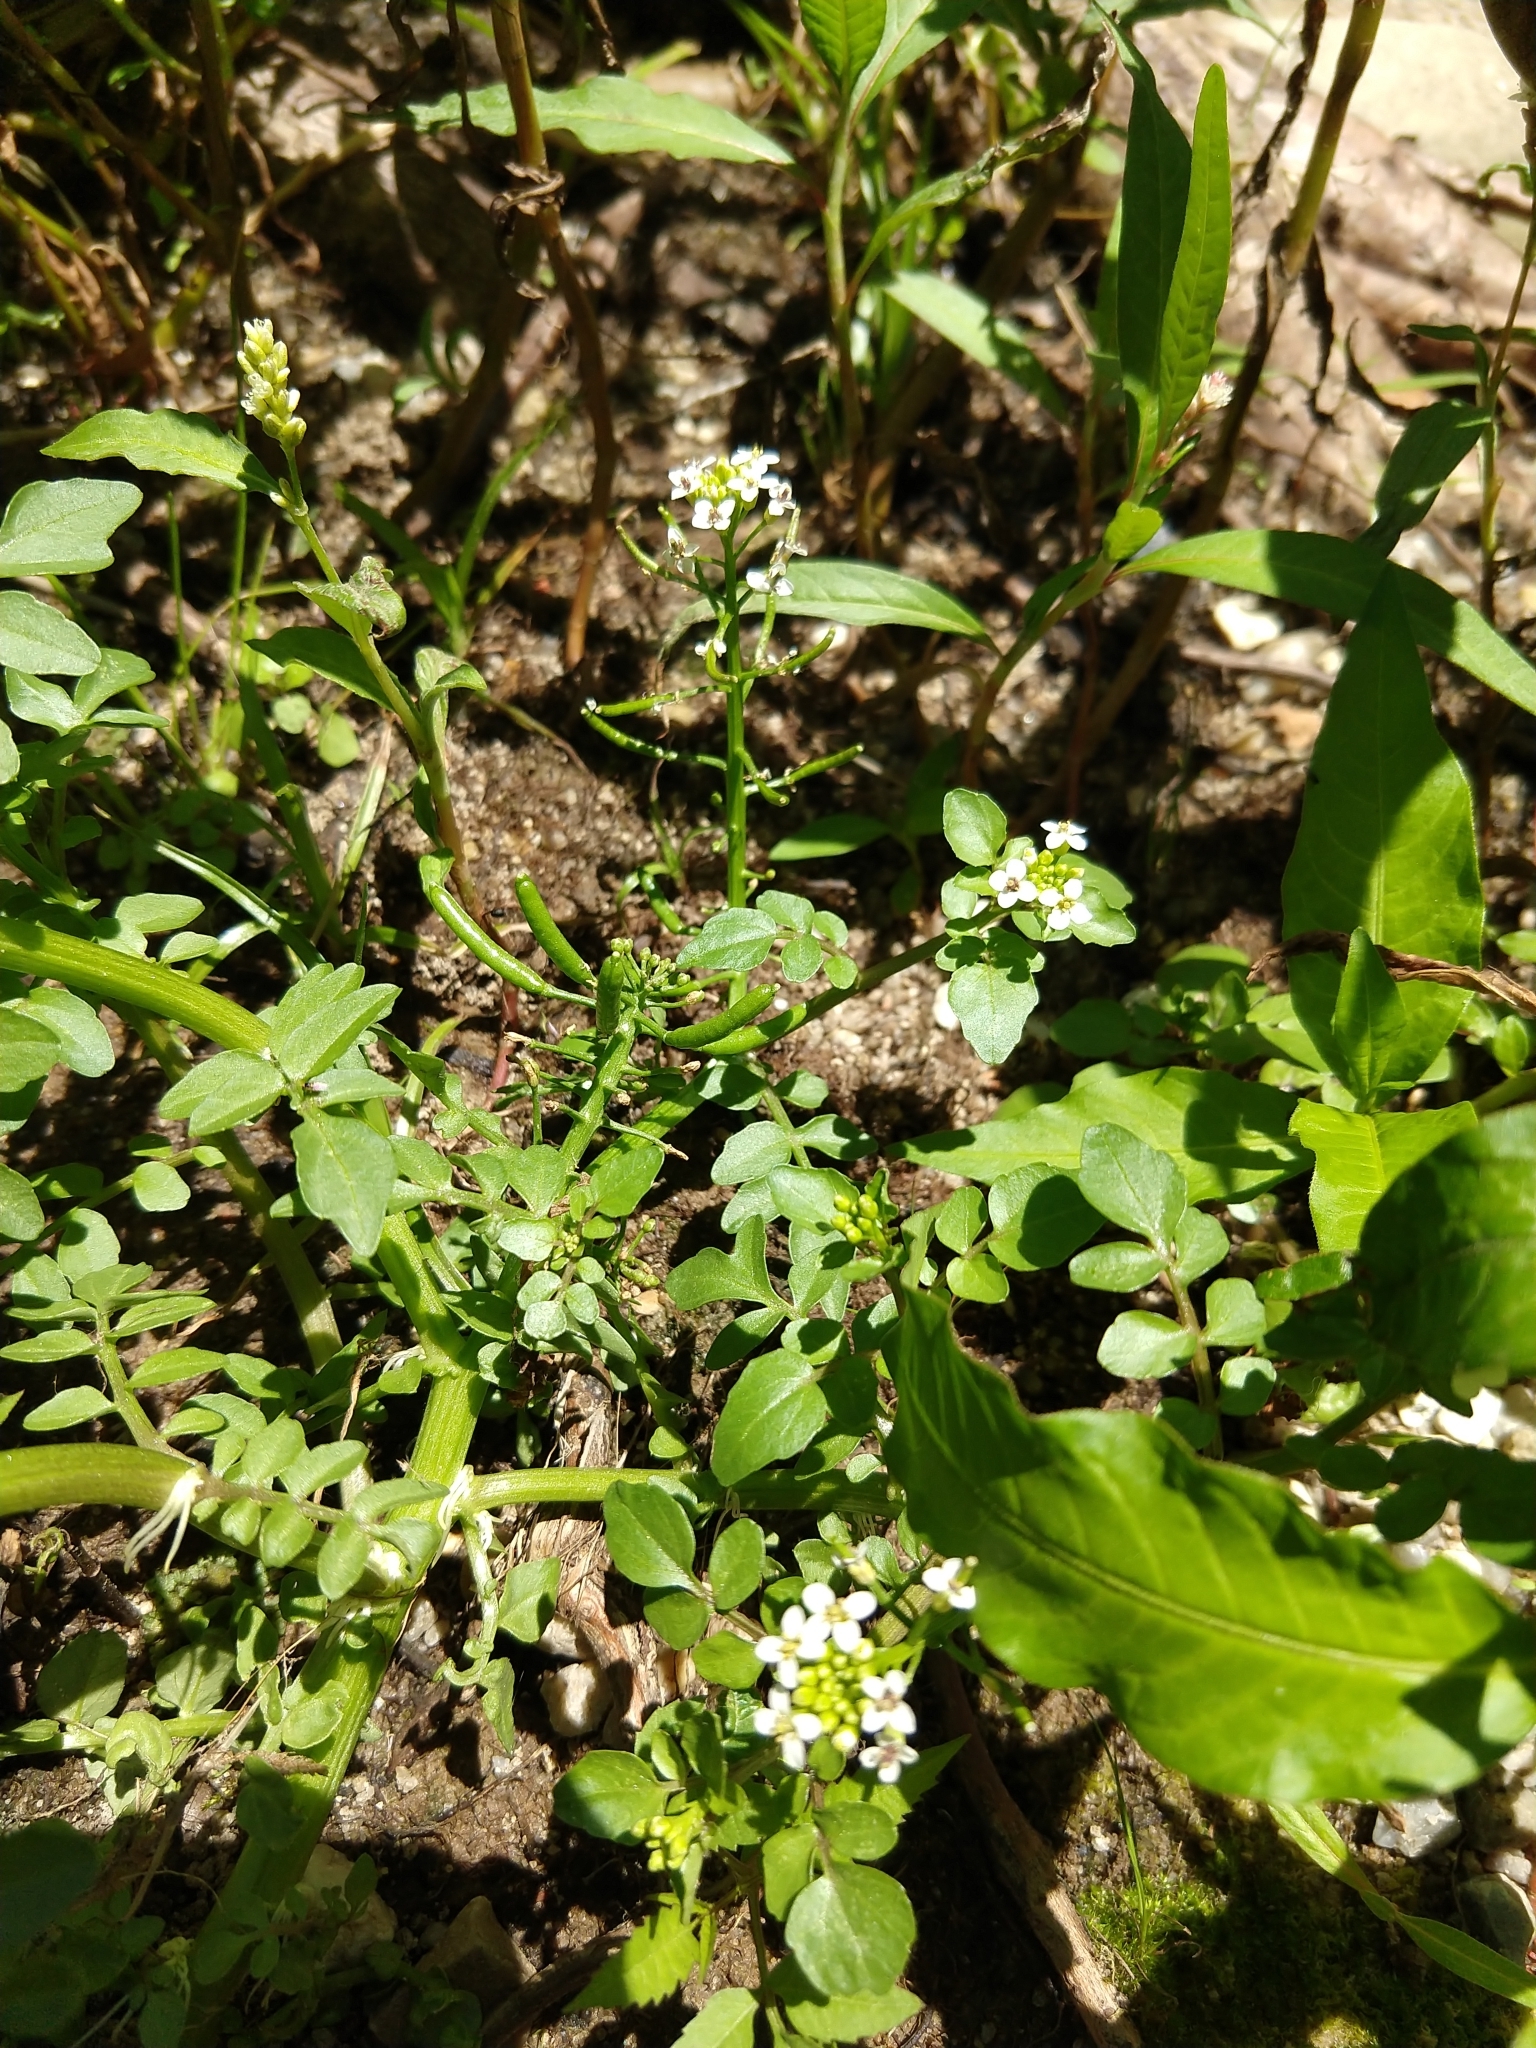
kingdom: Plantae
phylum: Tracheophyta
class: Magnoliopsida
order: Brassicales
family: Brassicaceae
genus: Nasturtium
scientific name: Nasturtium officinale
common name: Watercress
